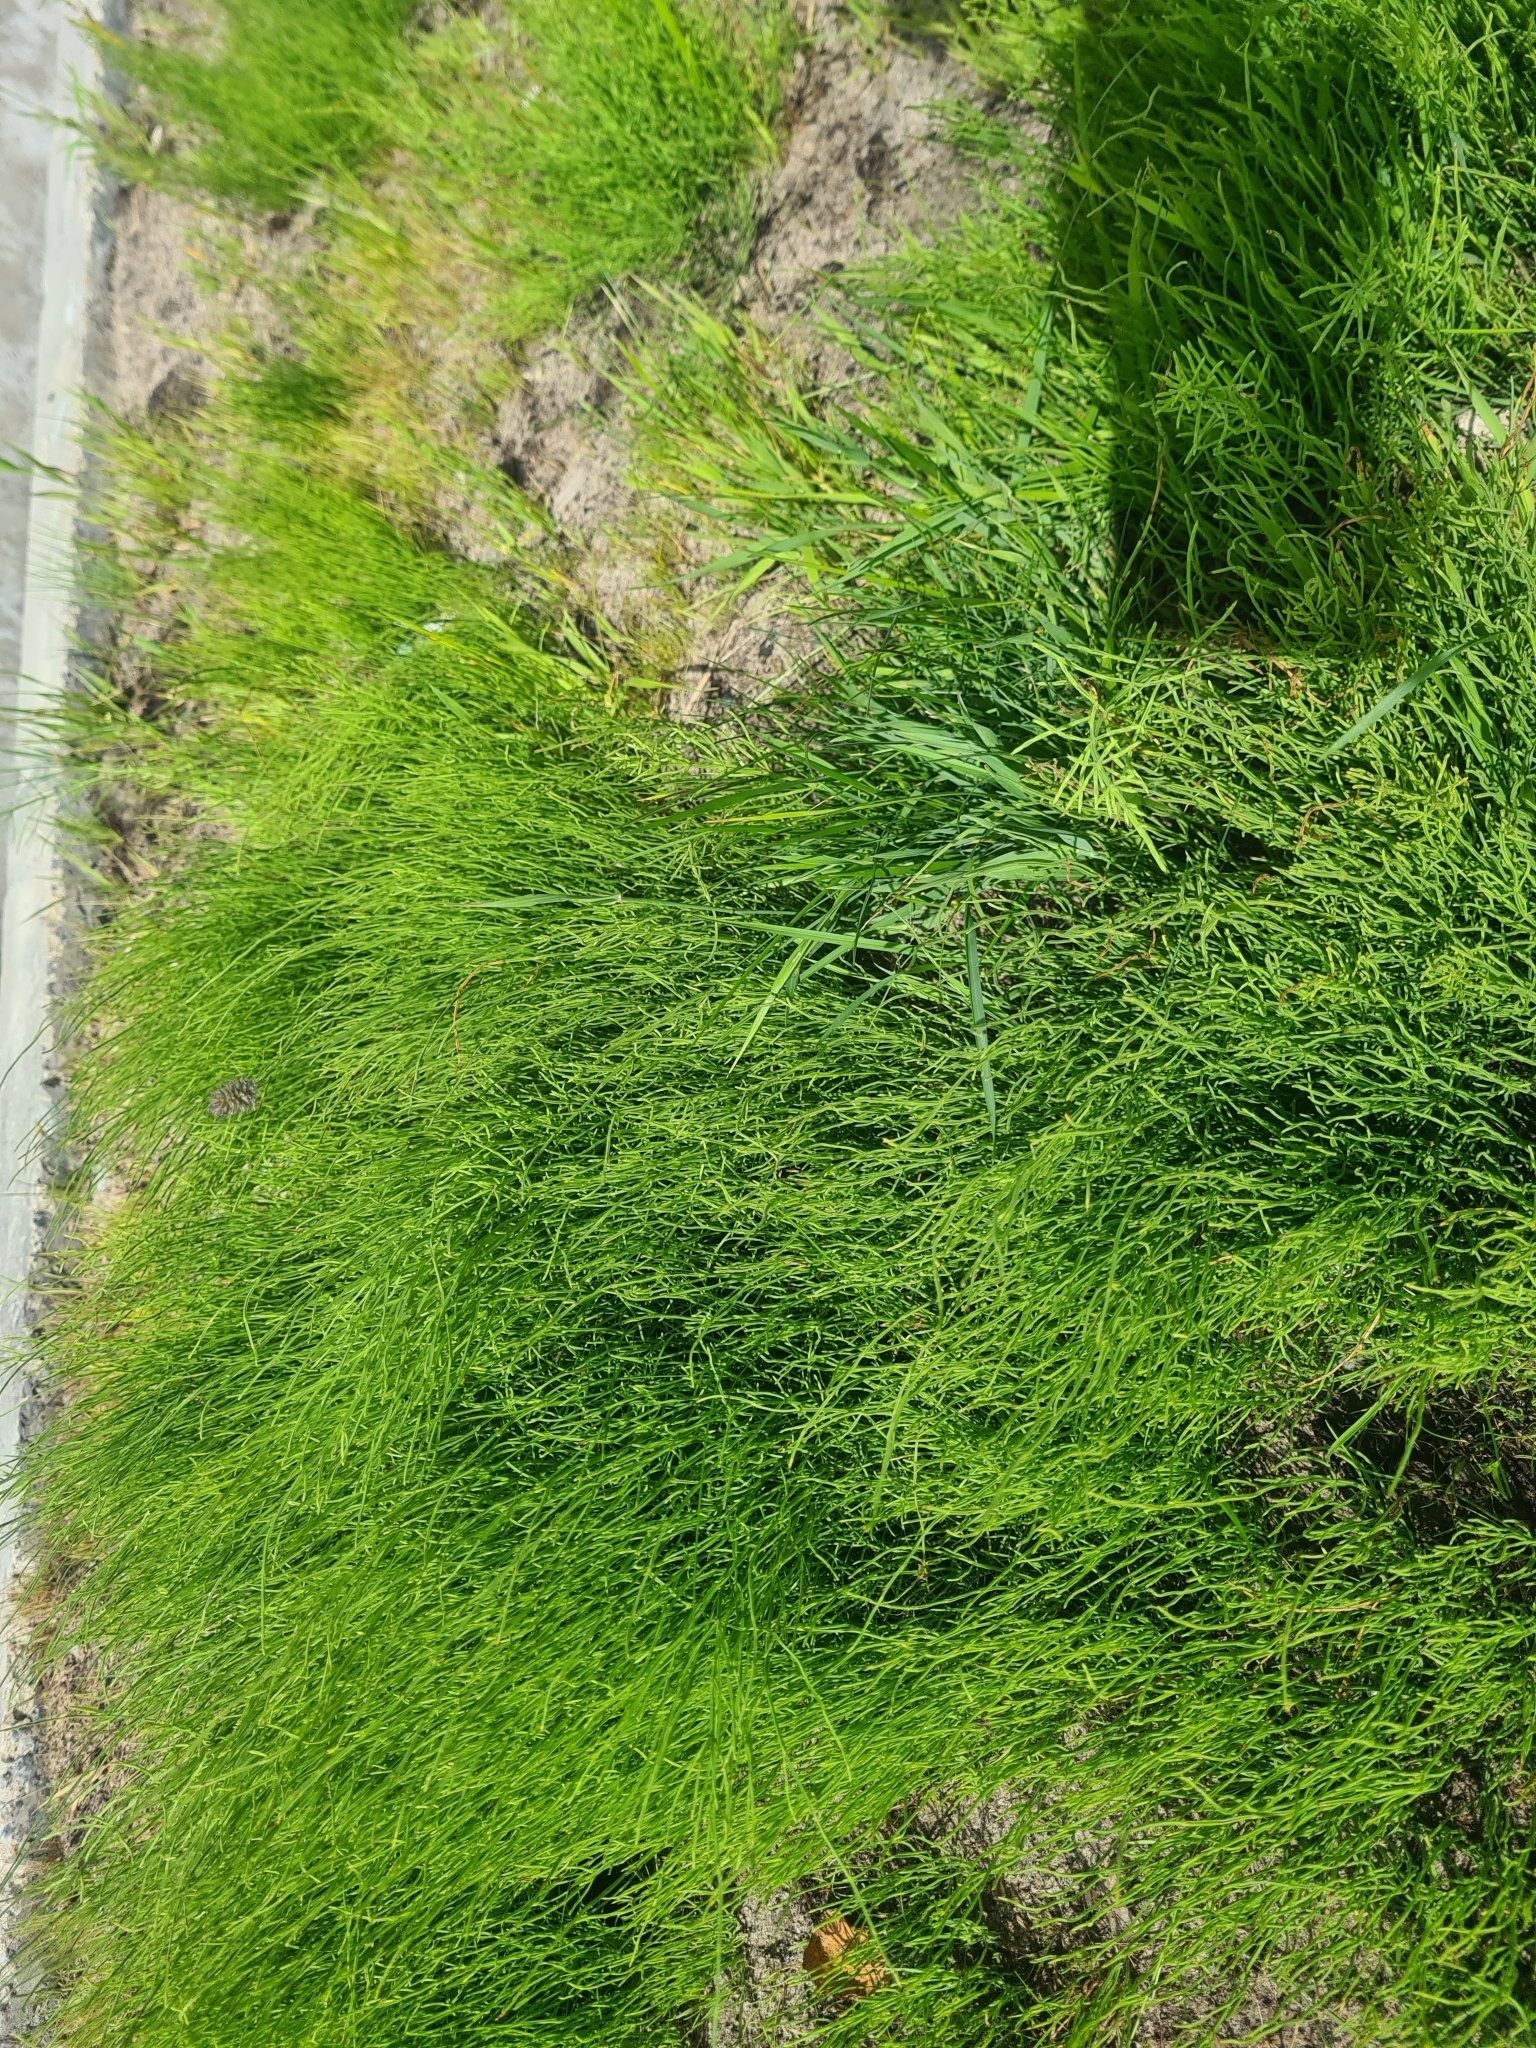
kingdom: Plantae
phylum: Tracheophyta
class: Polypodiopsida
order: Equisetales
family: Equisetaceae
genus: Equisetum
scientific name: Equisetum arvense
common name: Field horsetail
